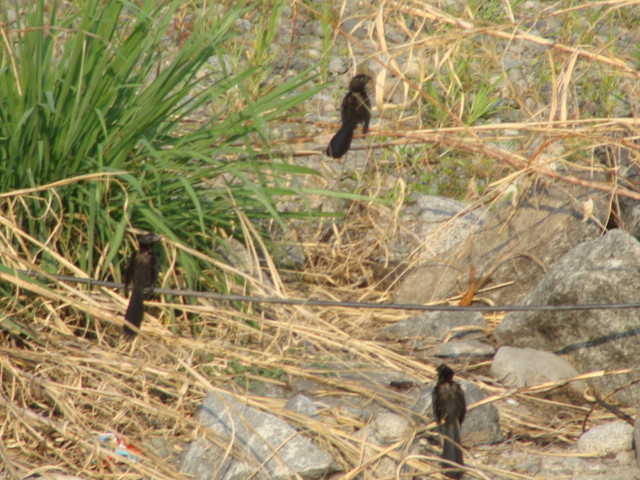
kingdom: Animalia
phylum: Chordata
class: Aves
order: Cuculiformes
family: Cuculidae
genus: Crotophaga
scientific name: Crotophaga sulcirostris
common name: Groove-billed ani
